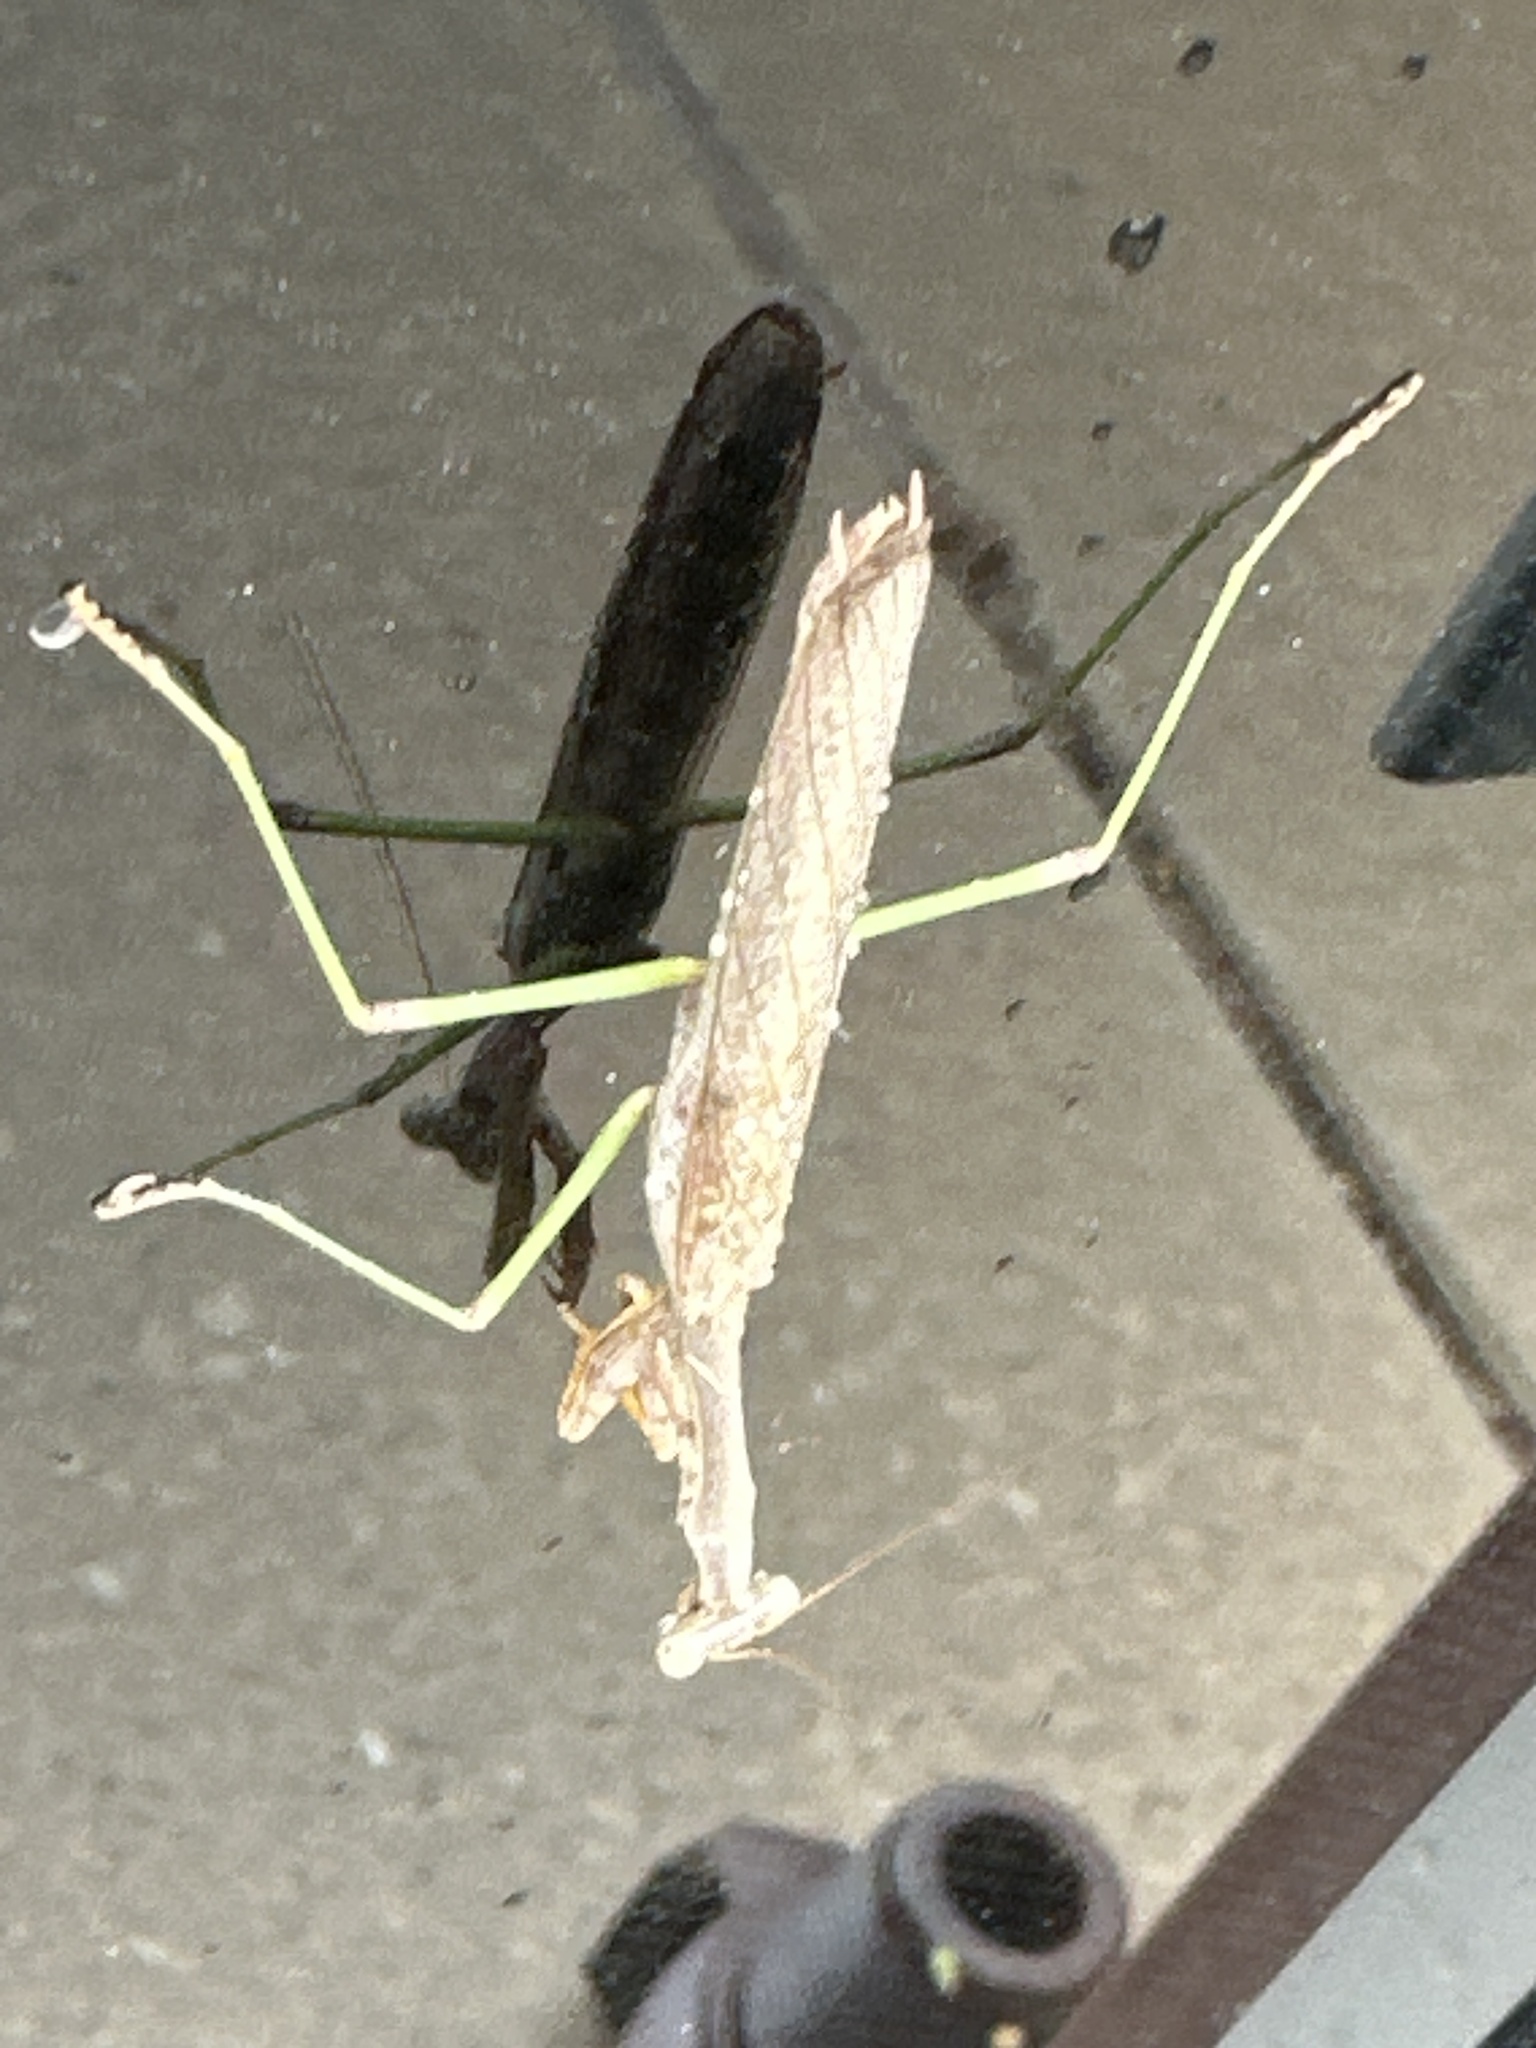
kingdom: Animalia
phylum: Arthropoda
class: Insecta
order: Mantodea
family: Mantidae
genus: Stagmomantis
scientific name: Stagmomantis carolina
